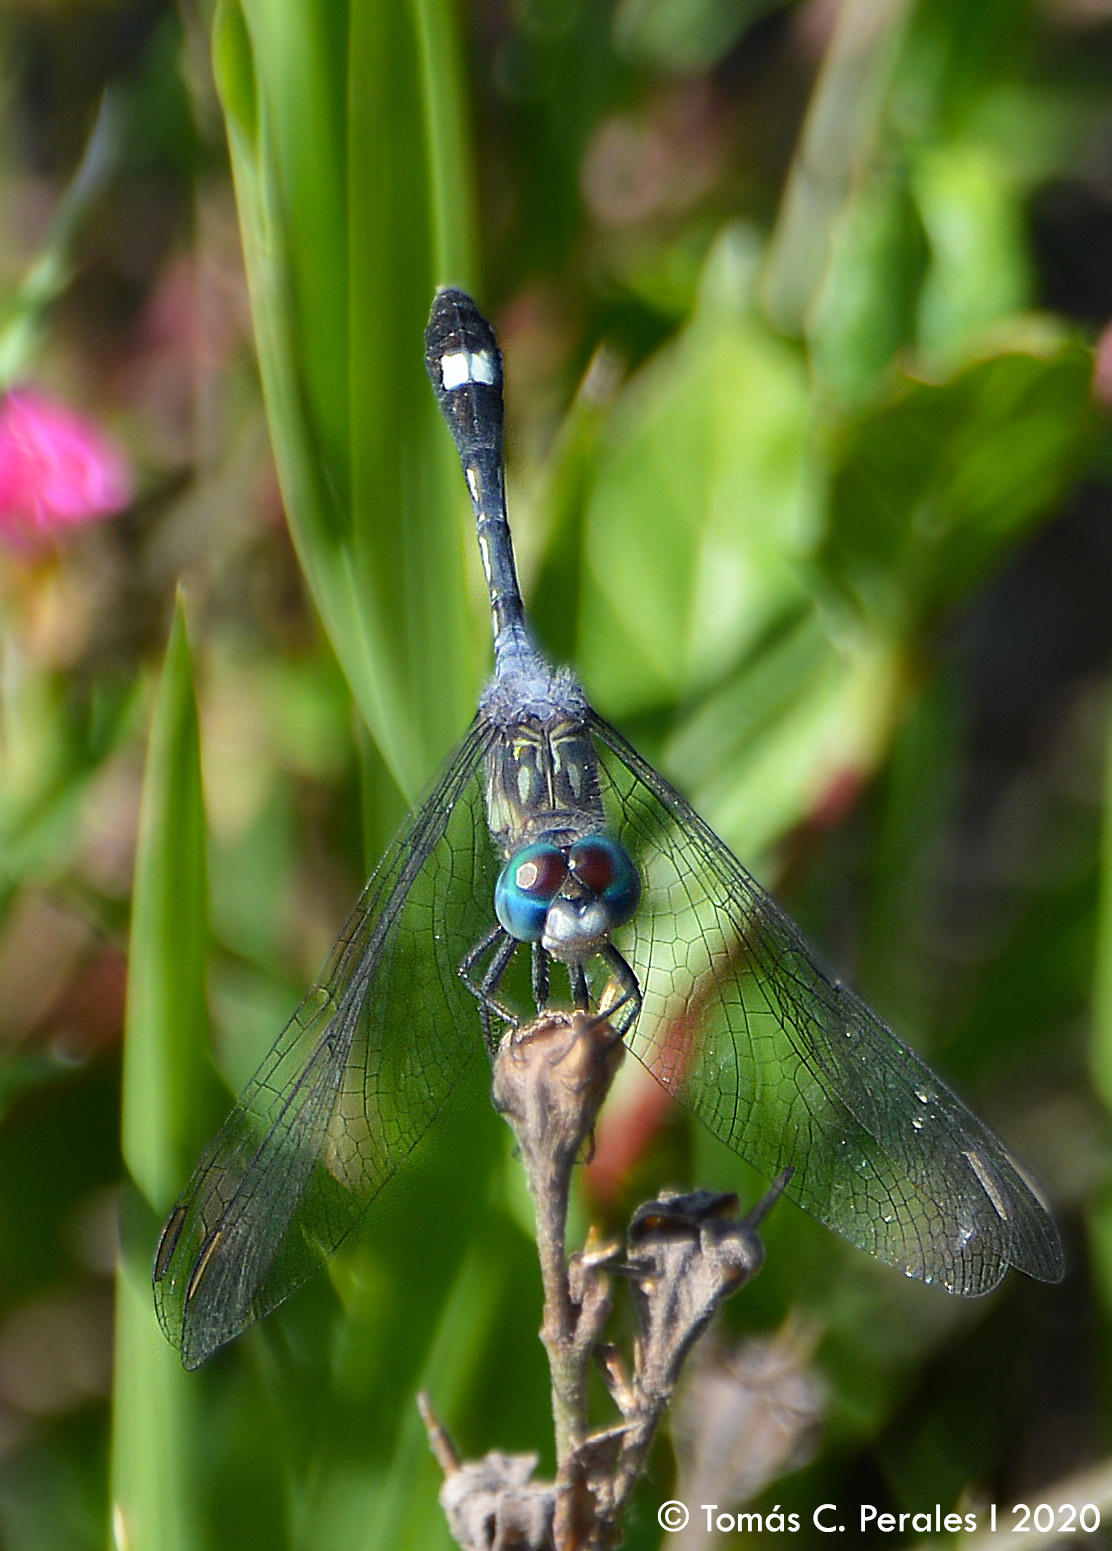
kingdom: Animalia
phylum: Arthropoda
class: Insecta
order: Odonata
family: Libellulidae
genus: Micrathyria
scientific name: Micrathyria longifasciata
